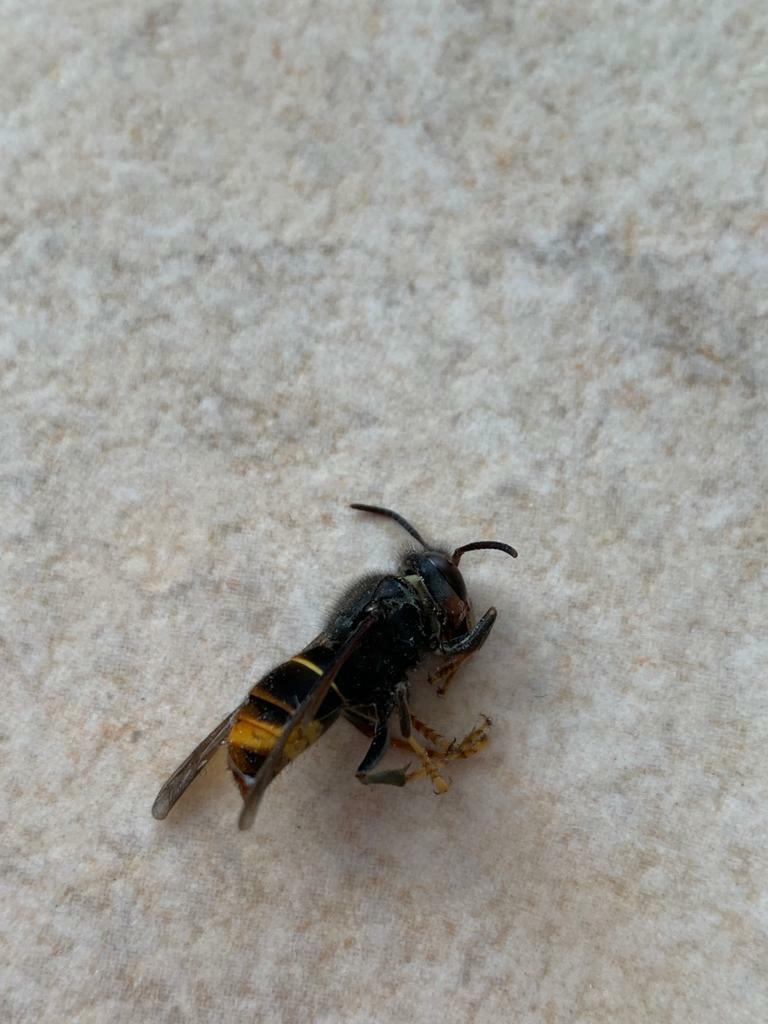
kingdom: Animalia
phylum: Arthropoda
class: Insecta
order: Hymenoptera
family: Vespidae
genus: Vespa
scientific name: Vespa velutina
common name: Asian hornet
